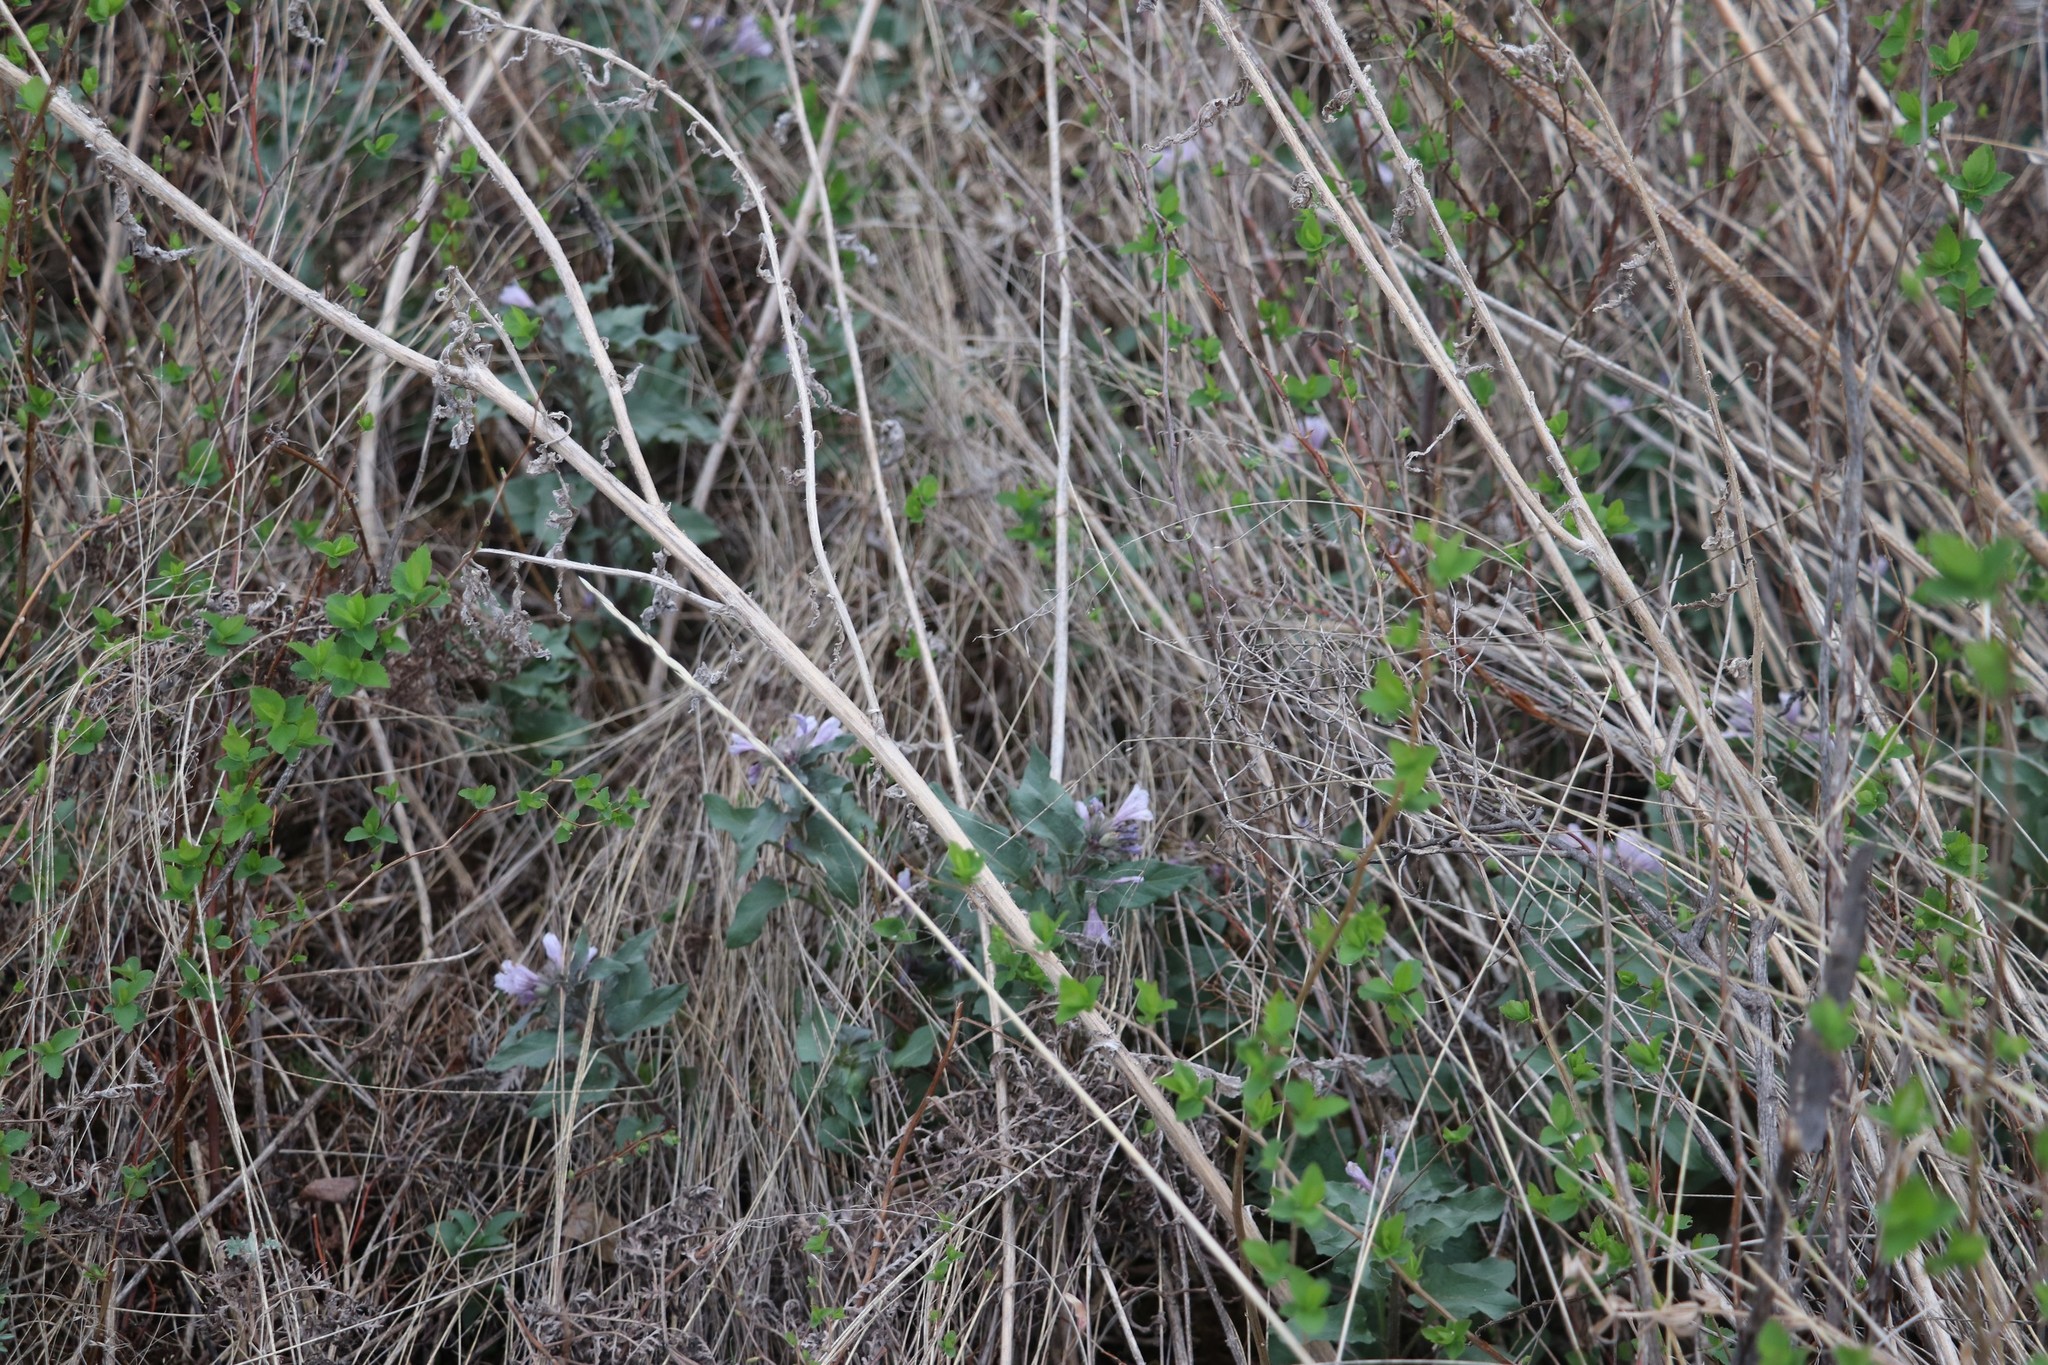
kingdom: Plantae
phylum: Tracheophyta
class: Magnoliopsida
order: Solanales
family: Solanaceae
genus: Physochlaina
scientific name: Physochlaina physaloides
